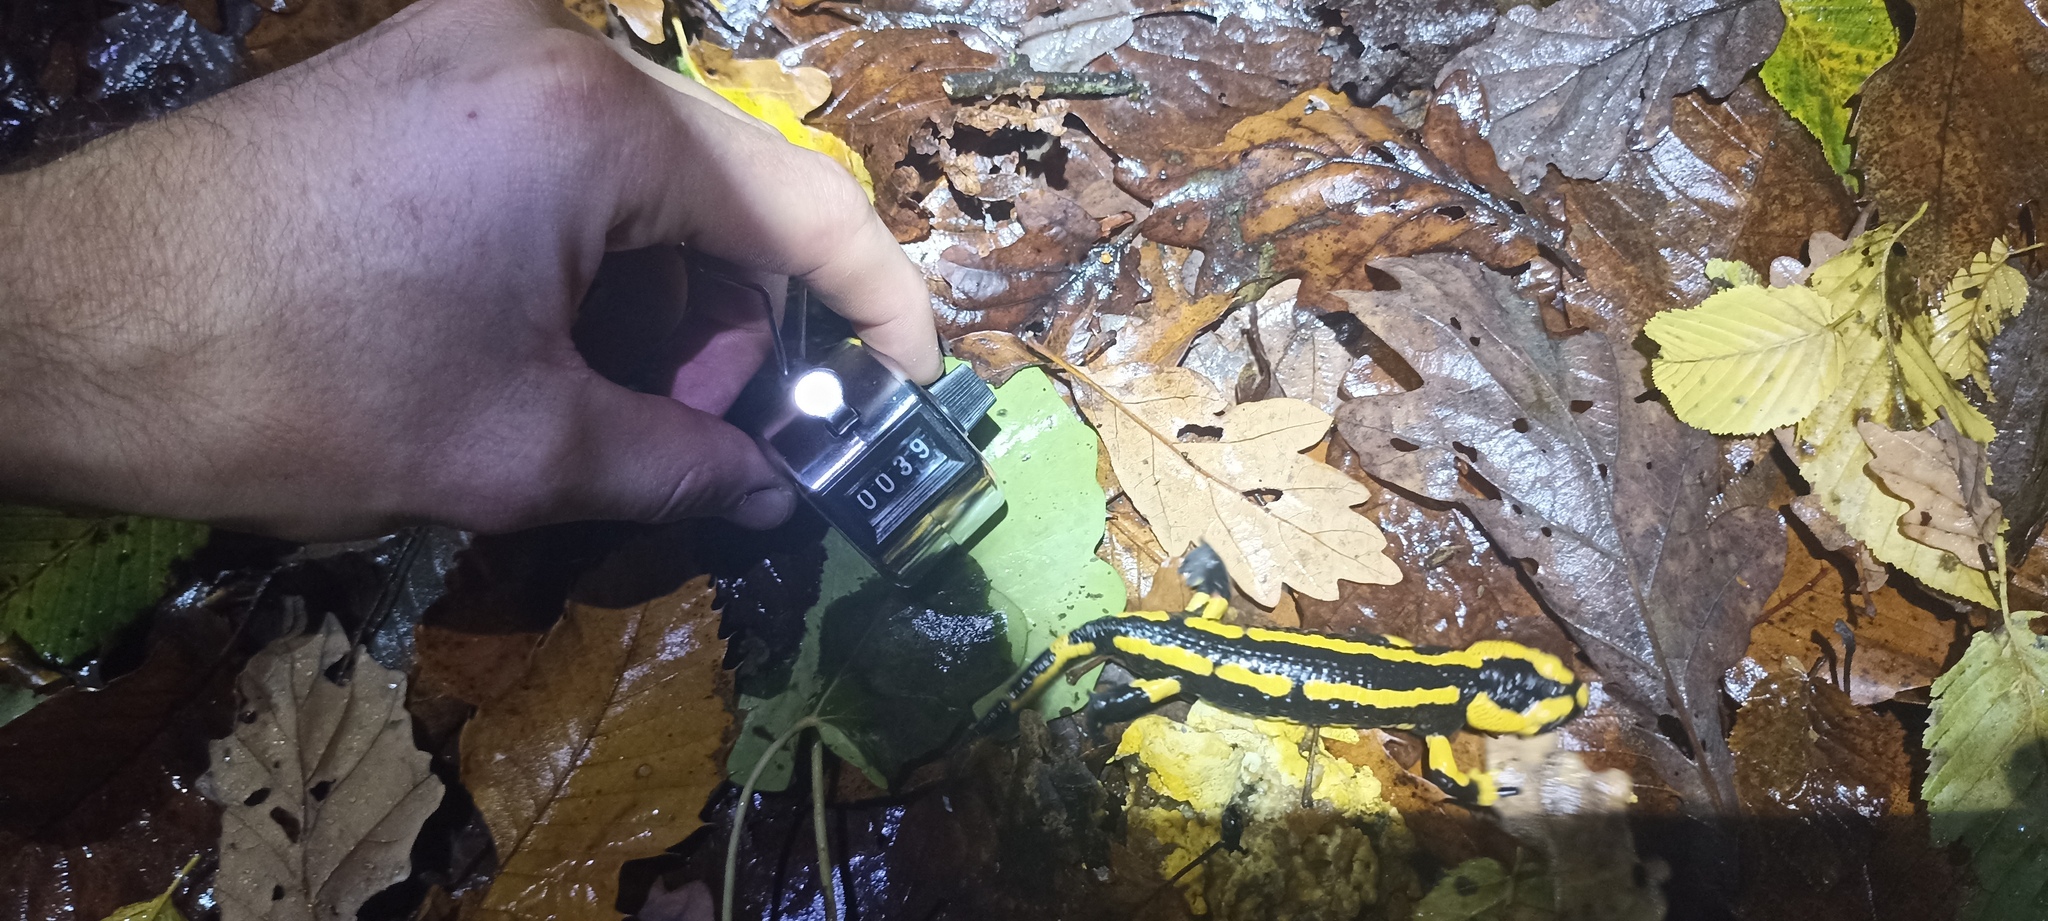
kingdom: Animalia
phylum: Chordata
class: Amphibia
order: Caudata
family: Salamandridae
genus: Salamandra
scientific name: Salamandra salamandra
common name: Fire salamander
